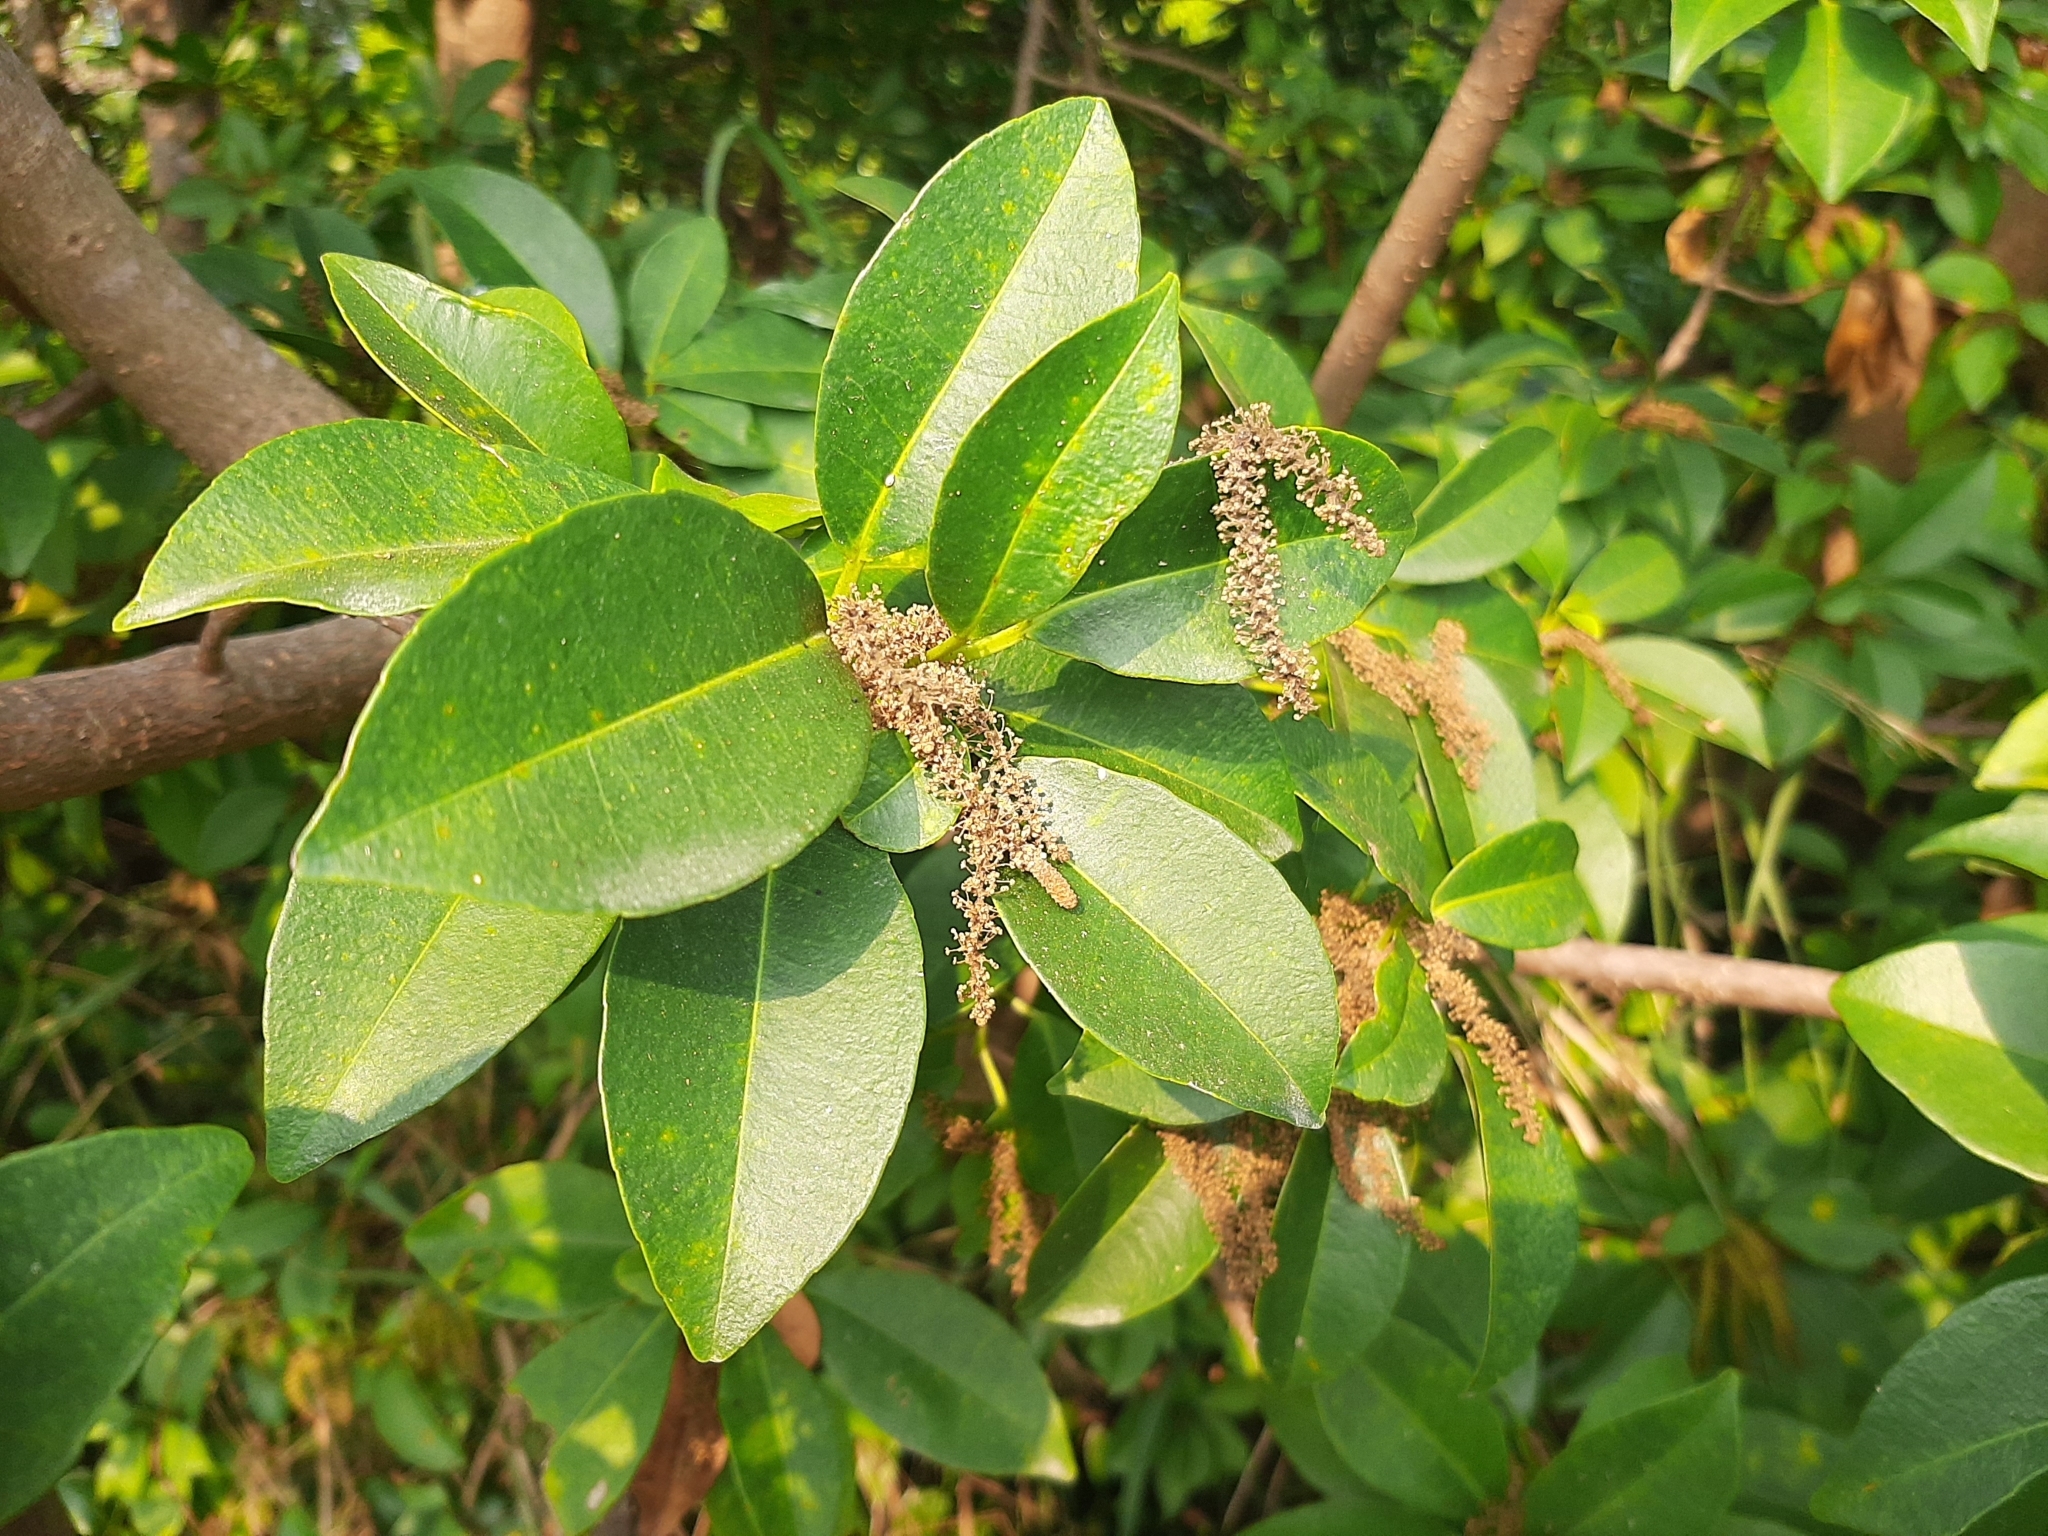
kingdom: Plantae
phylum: Tracheophyta
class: Magnoliopsida
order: Malpighiales
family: Euphorbiaceae
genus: Excoecaria
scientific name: Excoecaria agallocha
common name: River poisontree
